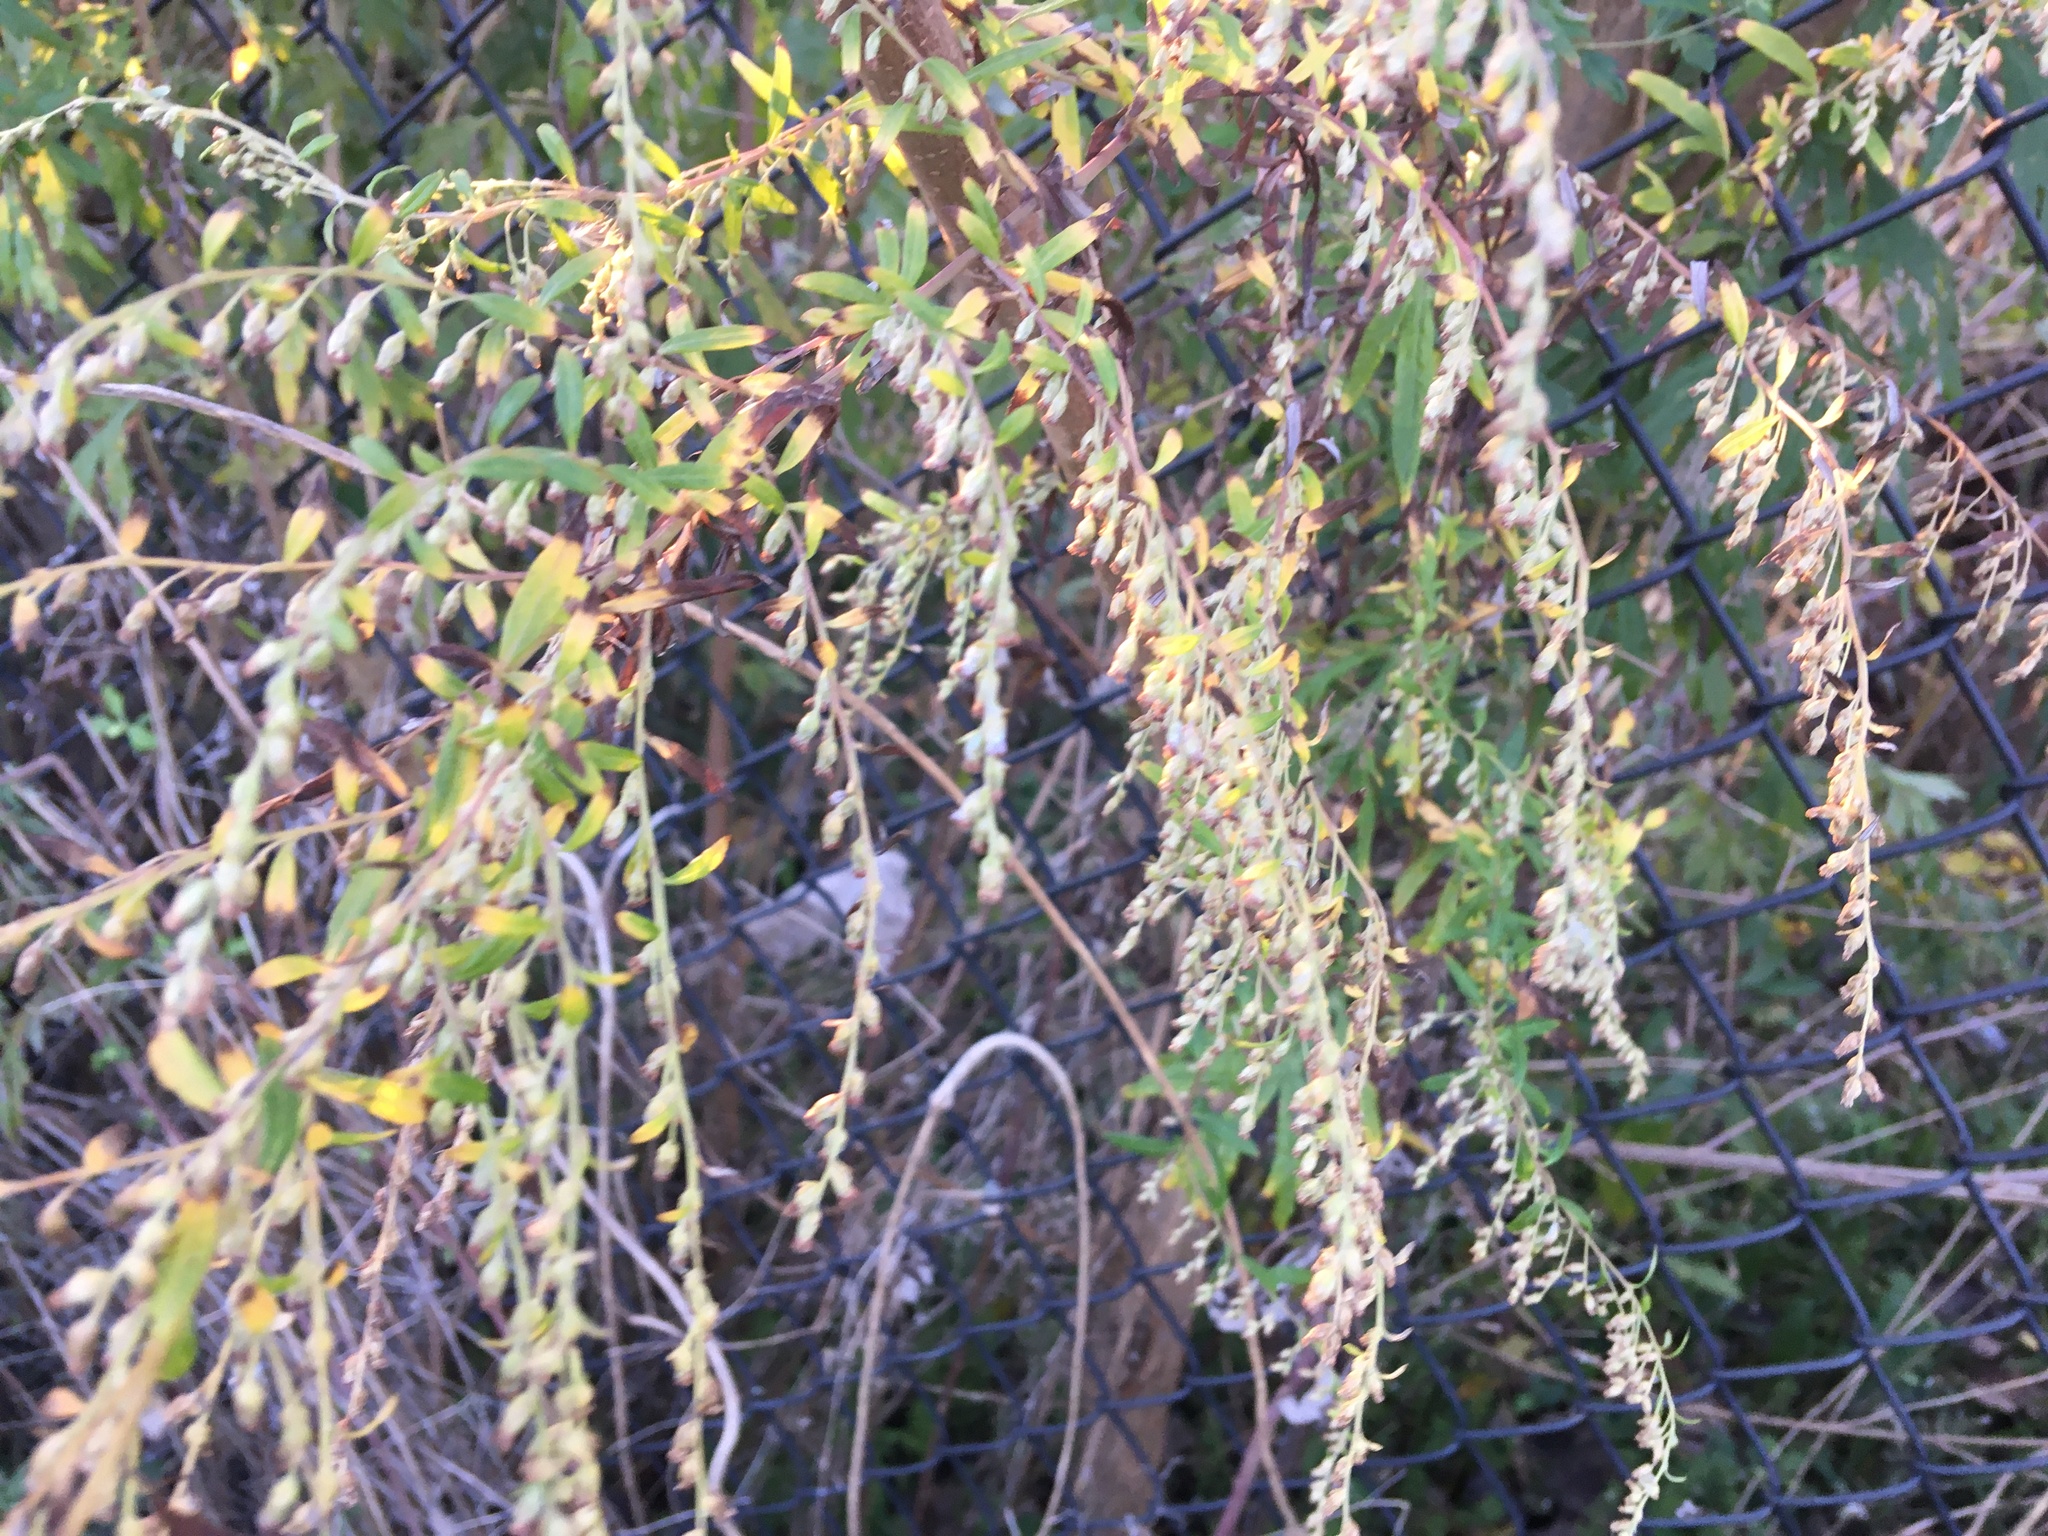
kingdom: Plantae
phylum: Tracheophyta
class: Magnoliopsida
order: Asterales
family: Asteraceae
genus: Artemisia
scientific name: Artemisia vulgaris
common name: Mugwort
